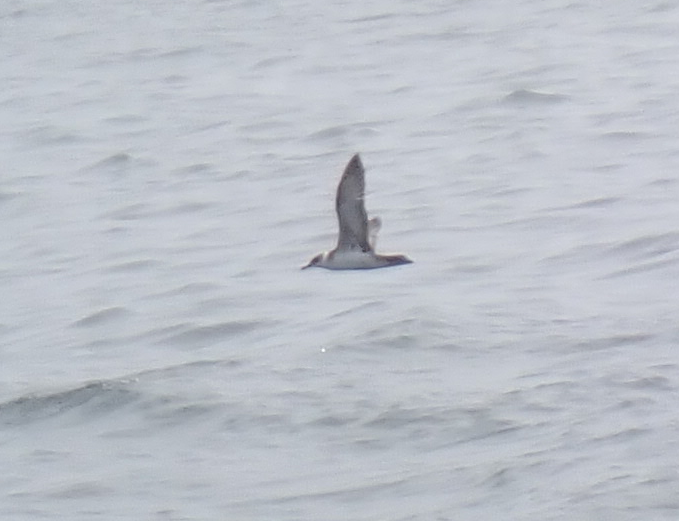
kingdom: Animalia
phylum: Chordata
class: Aves
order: Procellariiformes
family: Procellariidae
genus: Puffinus
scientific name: Puffinus gravis
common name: Great shearwater
